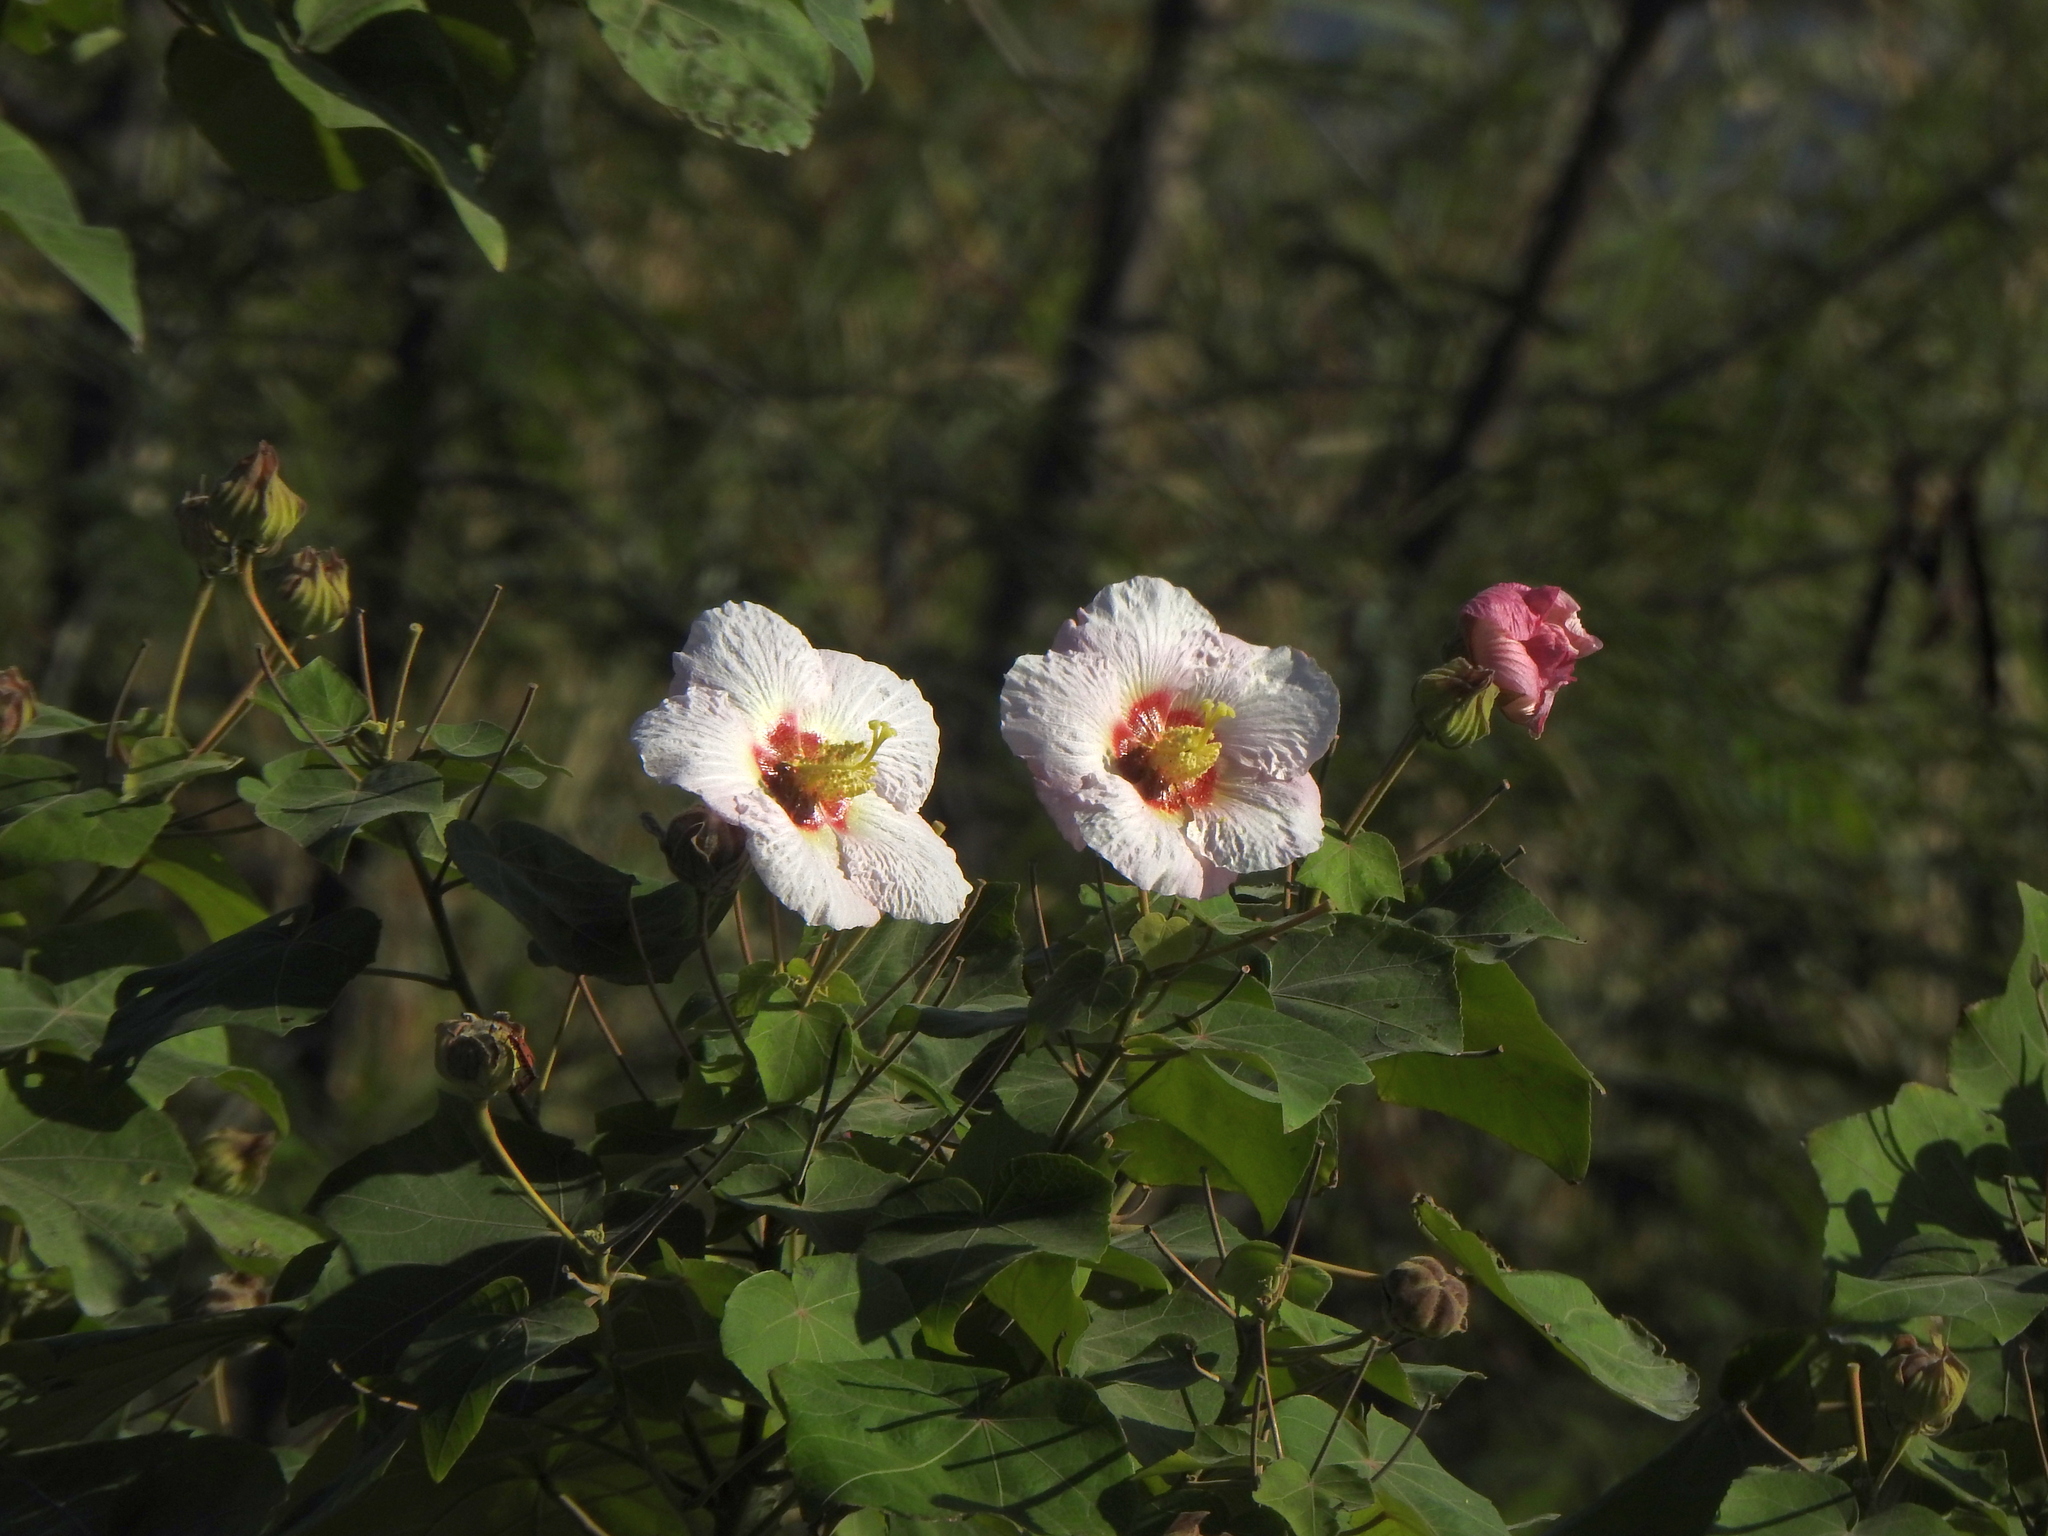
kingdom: Plantae
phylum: Tracheophyta
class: Magnoliopsida
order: Malvales
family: Malvaceae
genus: Hibiscus
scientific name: Hibiscus taiwanensis
